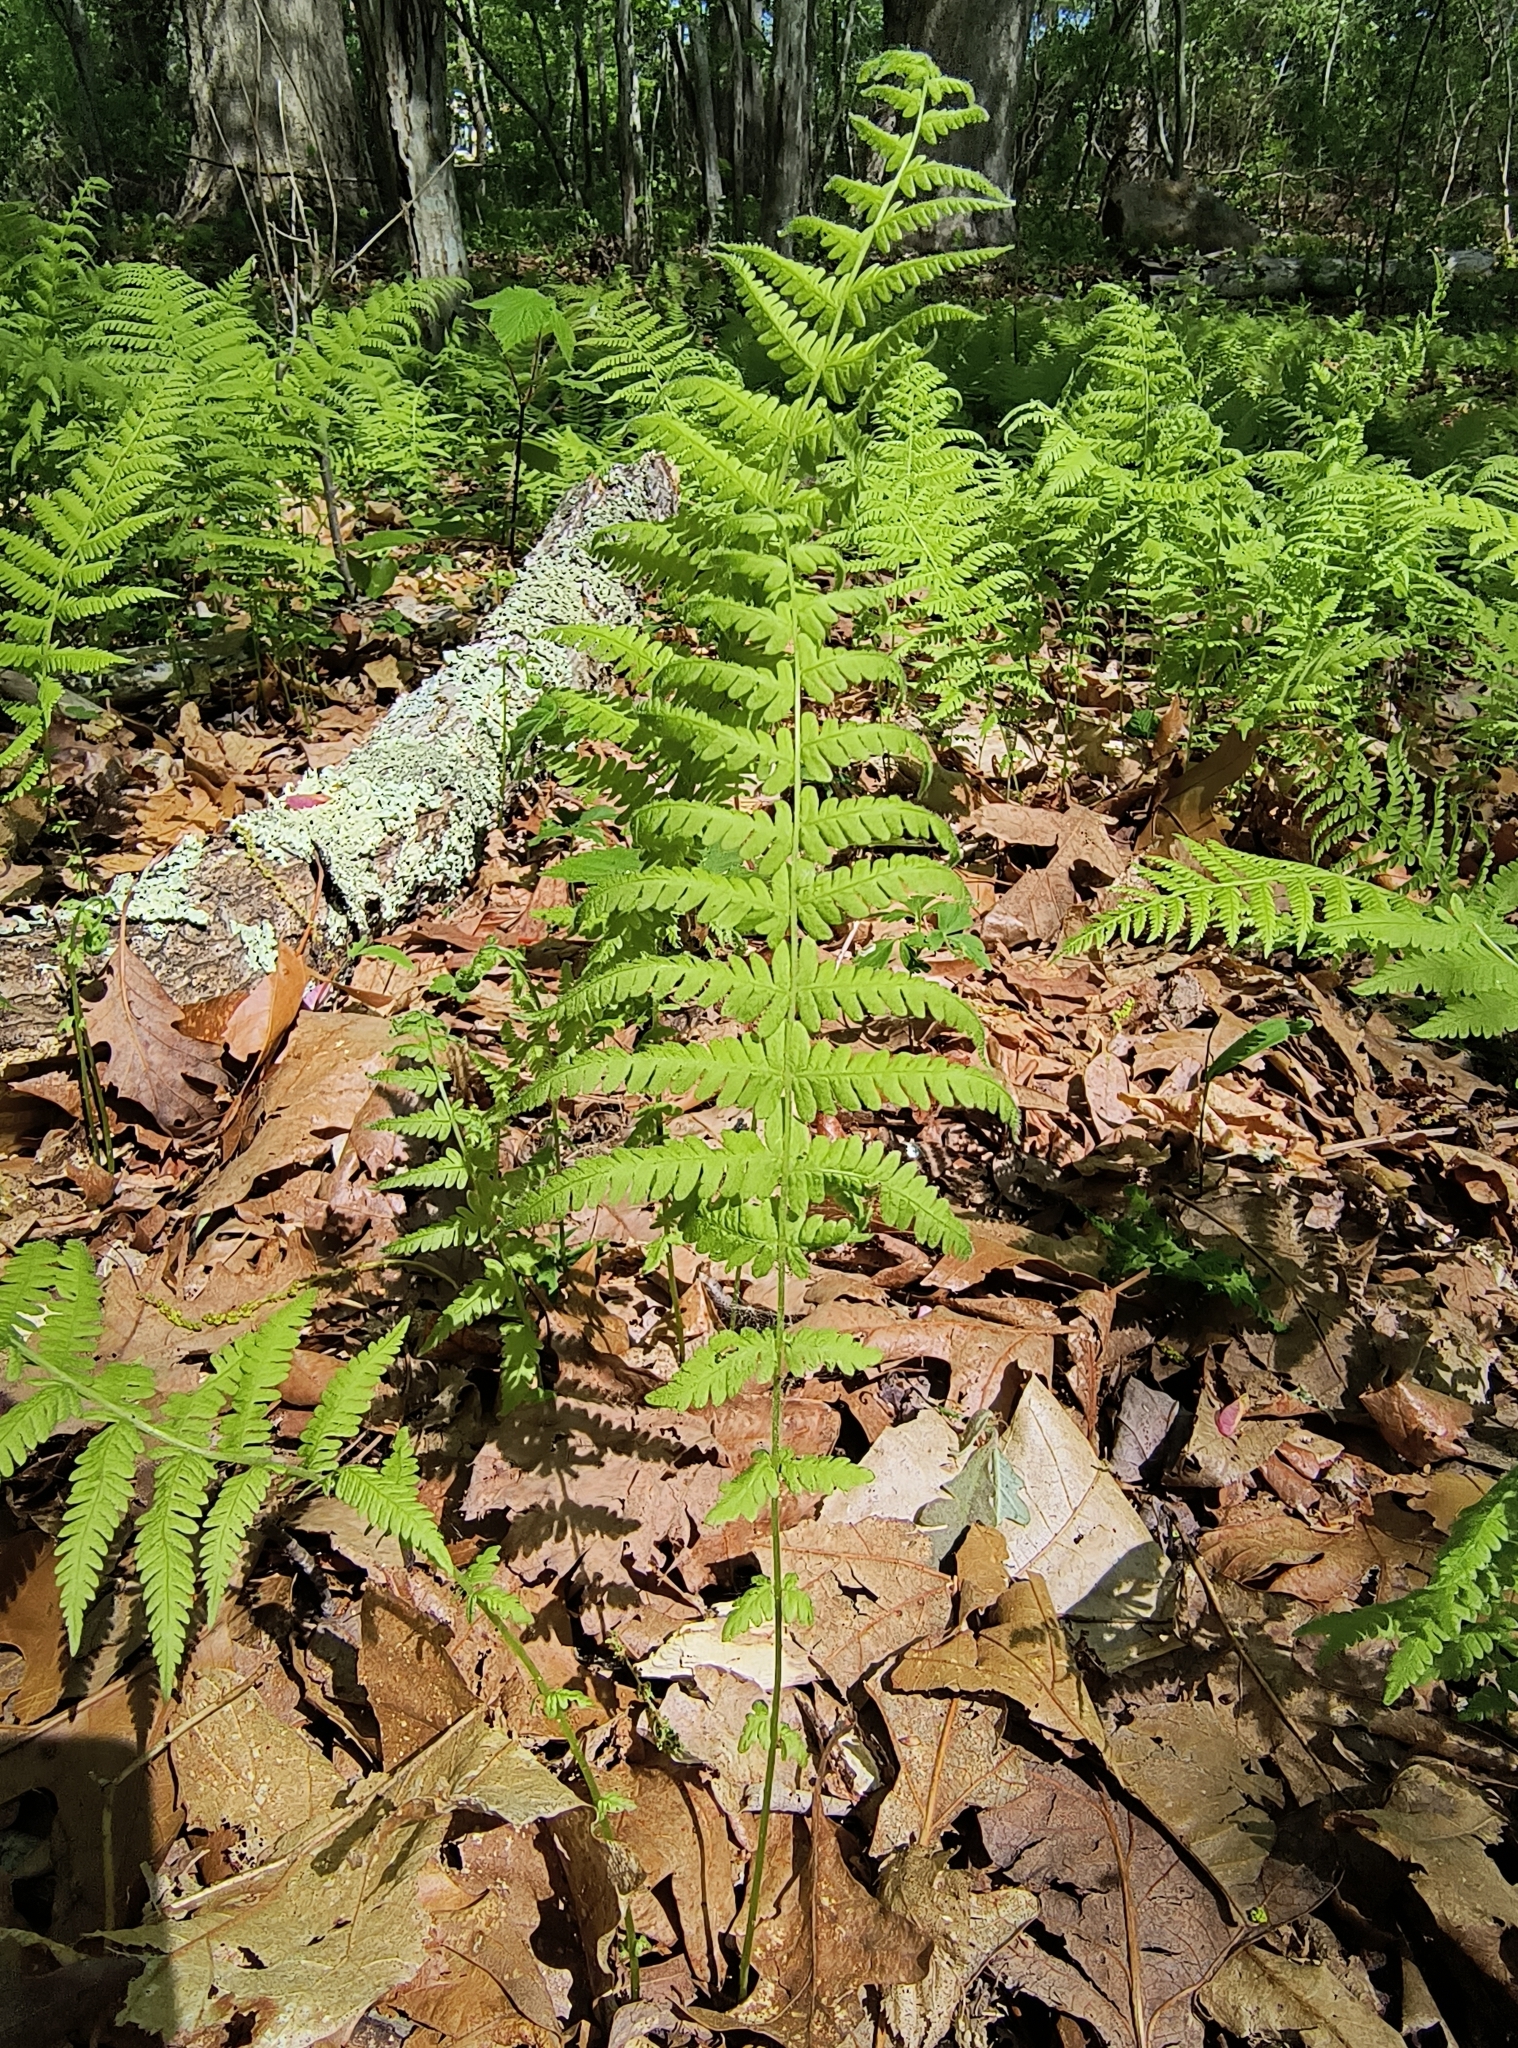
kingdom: Plantae
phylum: Tracheophyta
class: Polypodiopsida
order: Polypodiales
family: Thelypteridaceae
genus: Amauropelta
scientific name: Amauropelta noveboracensis
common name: New york fern
